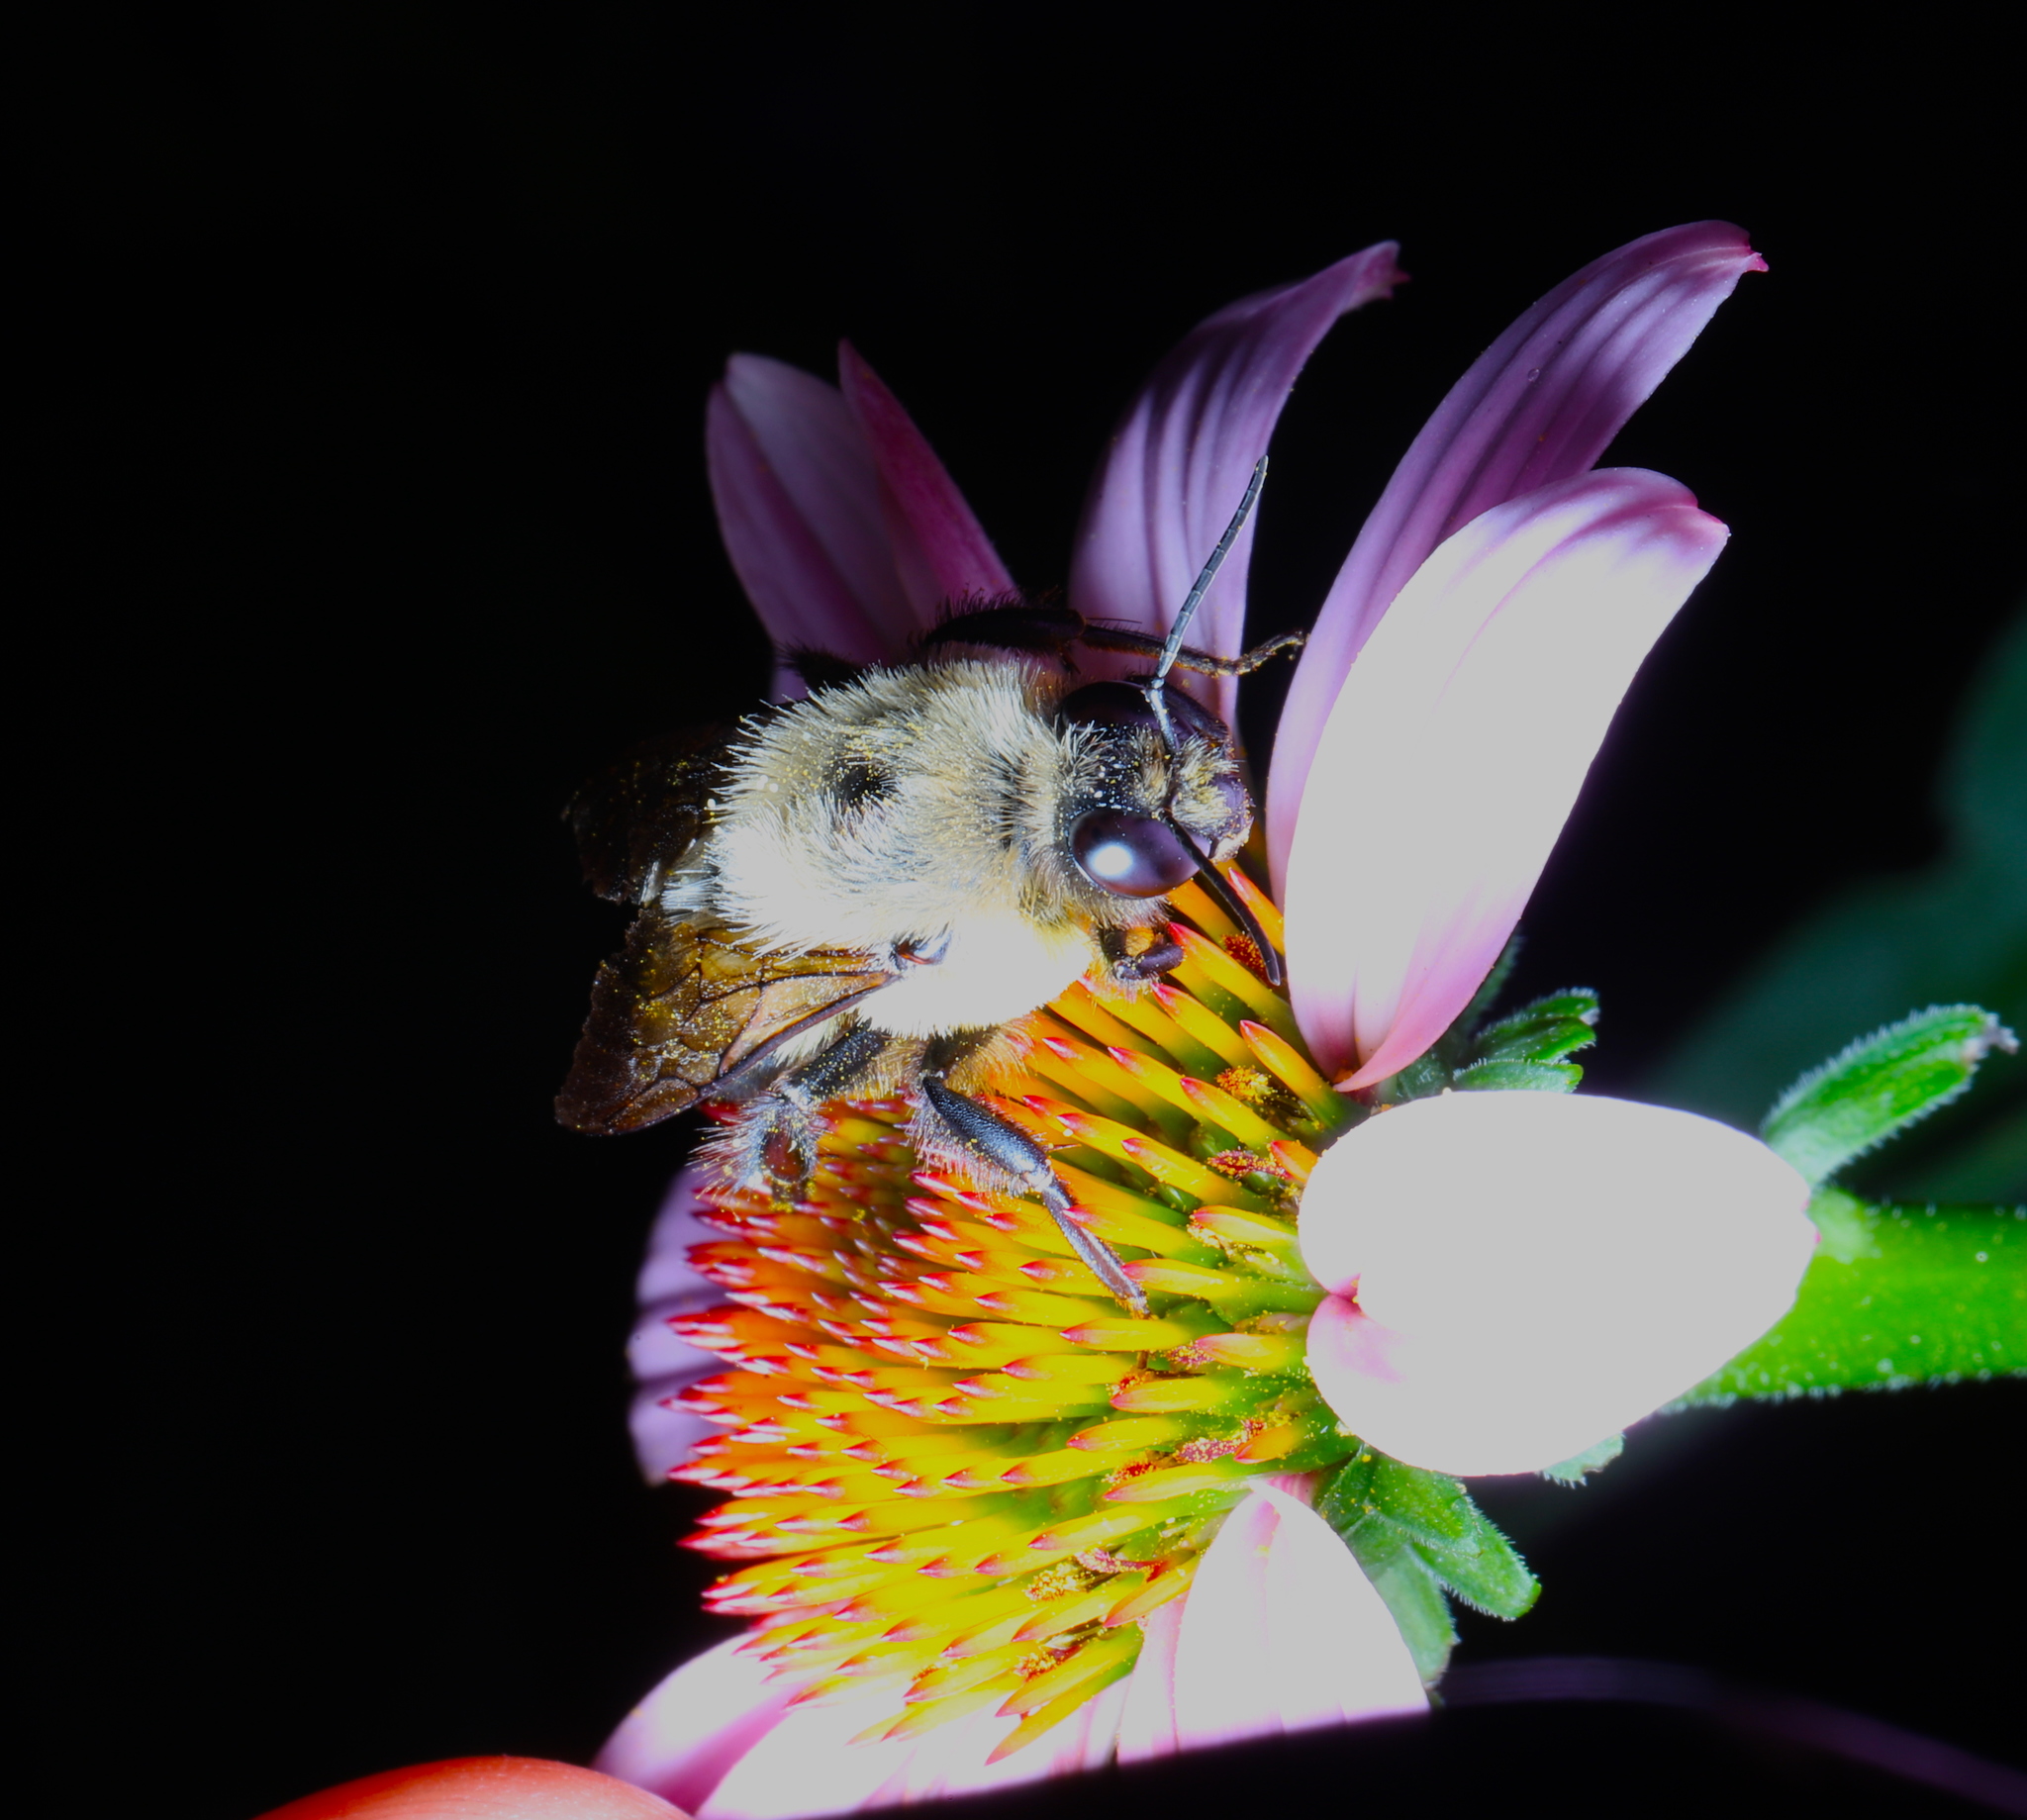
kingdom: Animalia
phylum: Arthropoda
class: Insecta
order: Hymenoptera
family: Apidae
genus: Bombus
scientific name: Bombus griseocollis
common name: Brown-belted bumble bee
